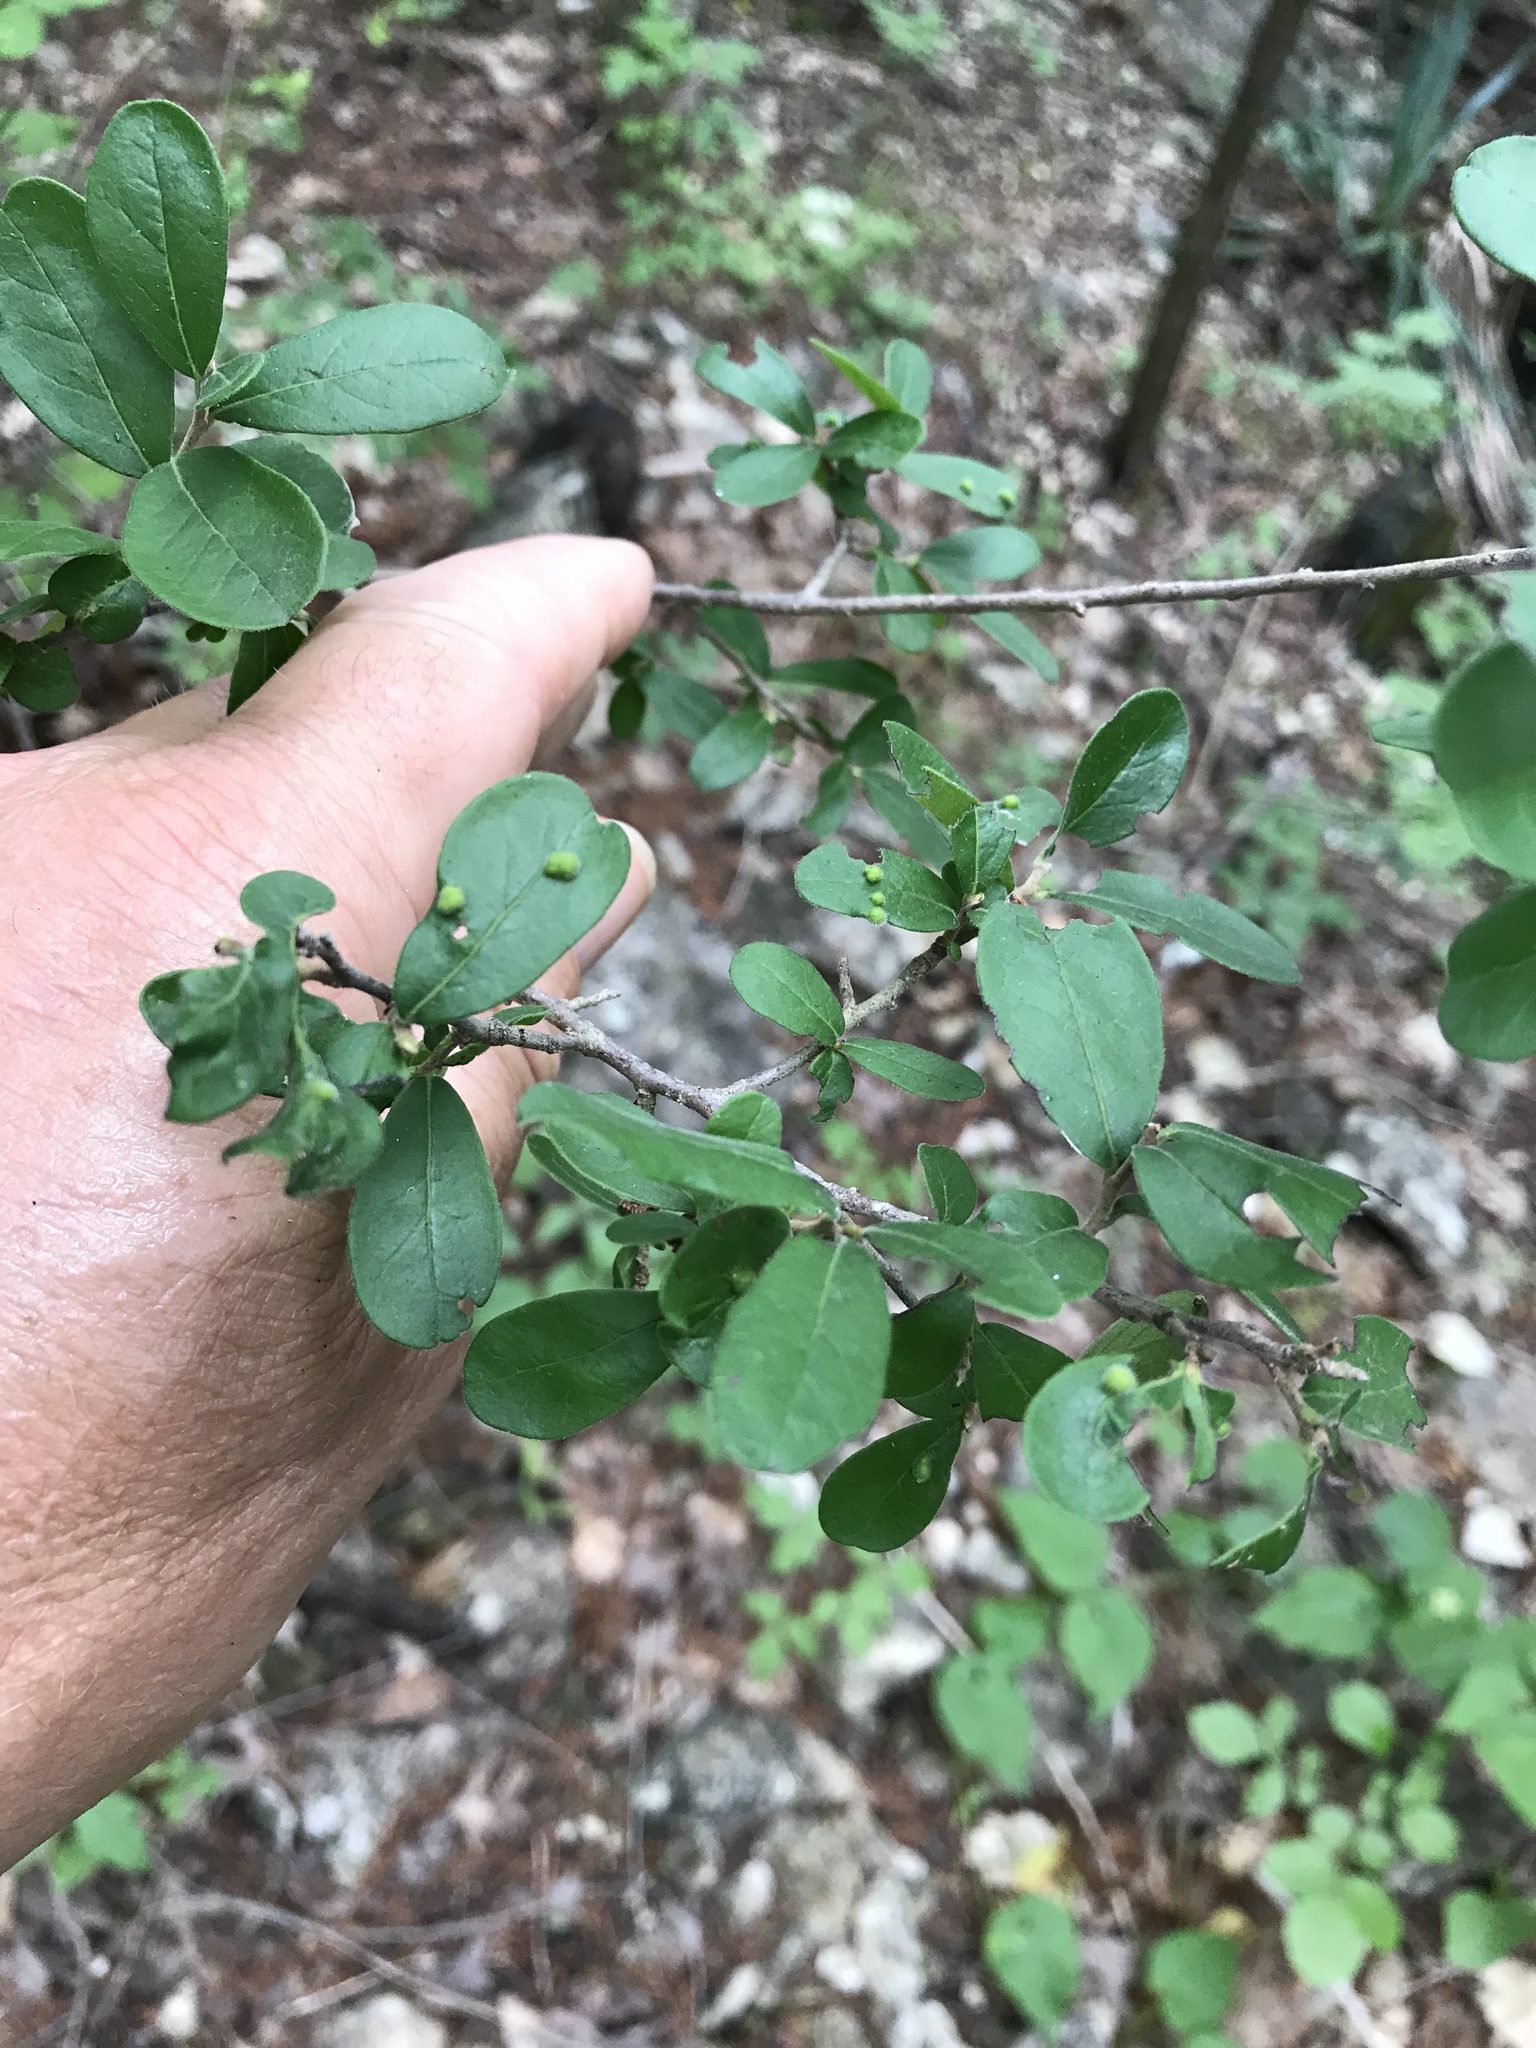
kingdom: Plantae
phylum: Tracheophyta
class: Magnoliopsida
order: Ericales
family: Ebenaceae
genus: Diospyros
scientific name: Diospyros texana
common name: Texas persimmon
